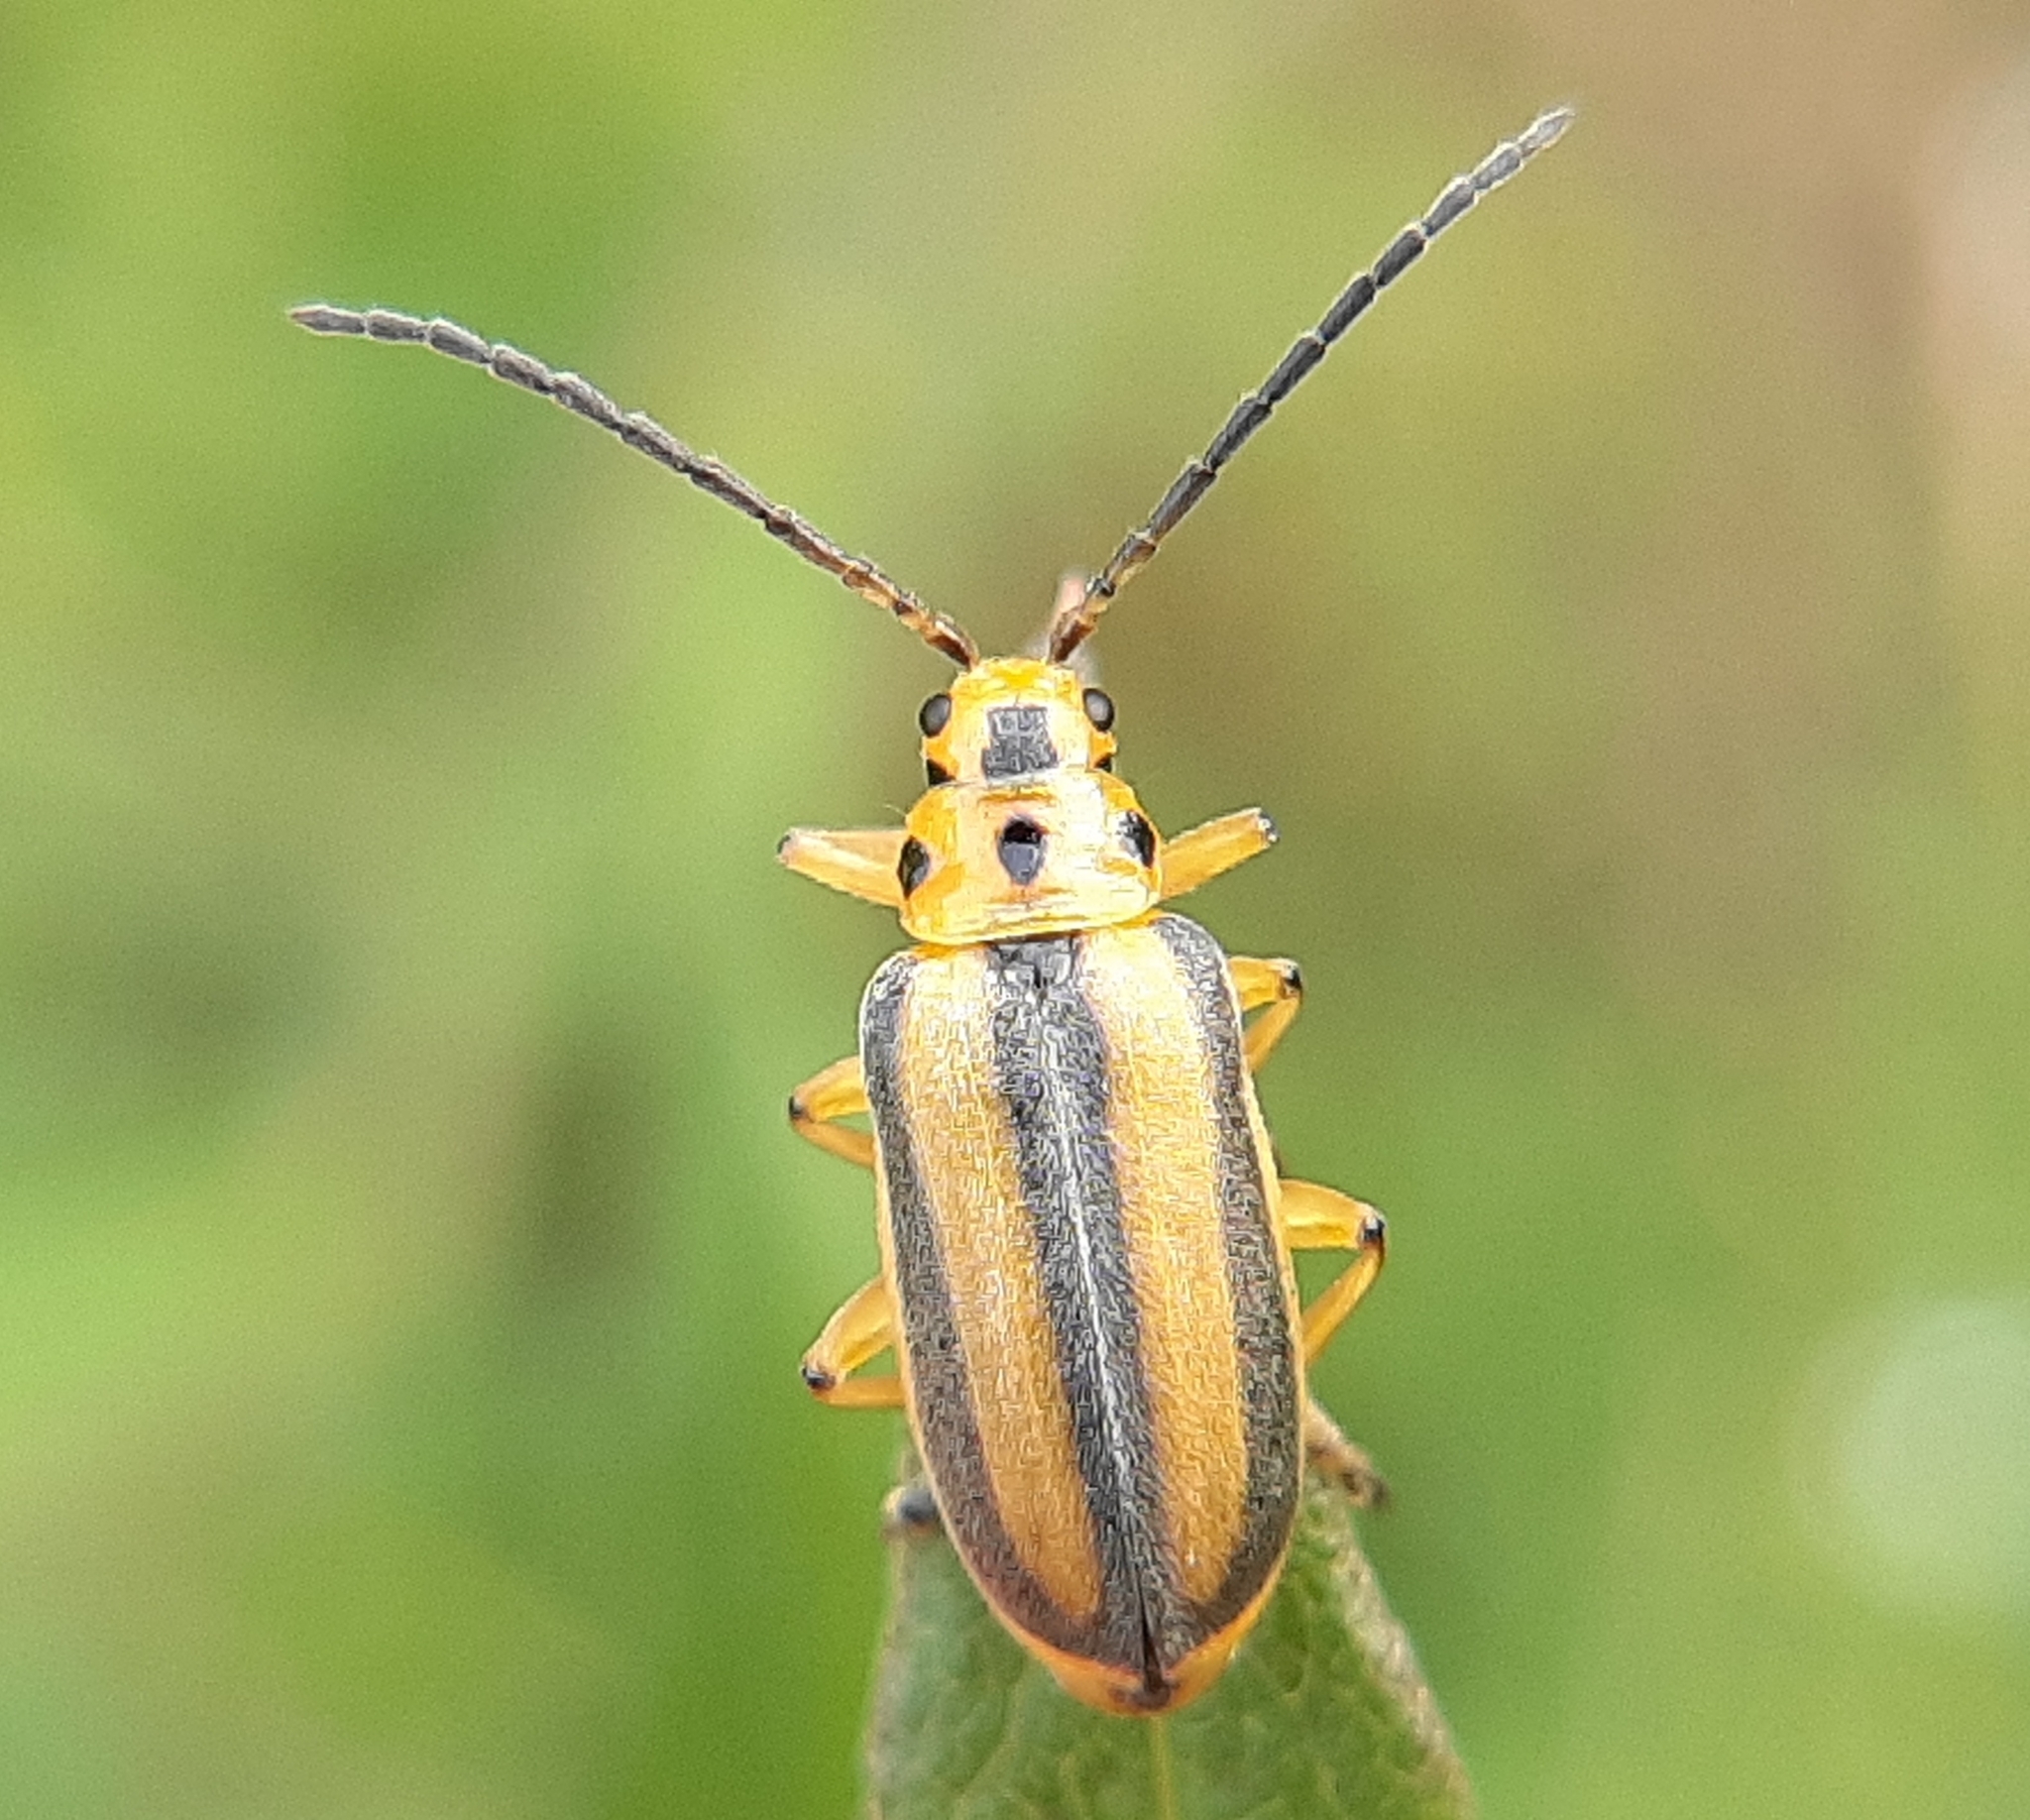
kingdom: Animalia
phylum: Arthropoda
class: Insecta
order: Coleoptera
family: Chrysomelidae
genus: Trirhabda
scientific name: Trirhabda canadensis
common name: Goldenrod leaf beetle
